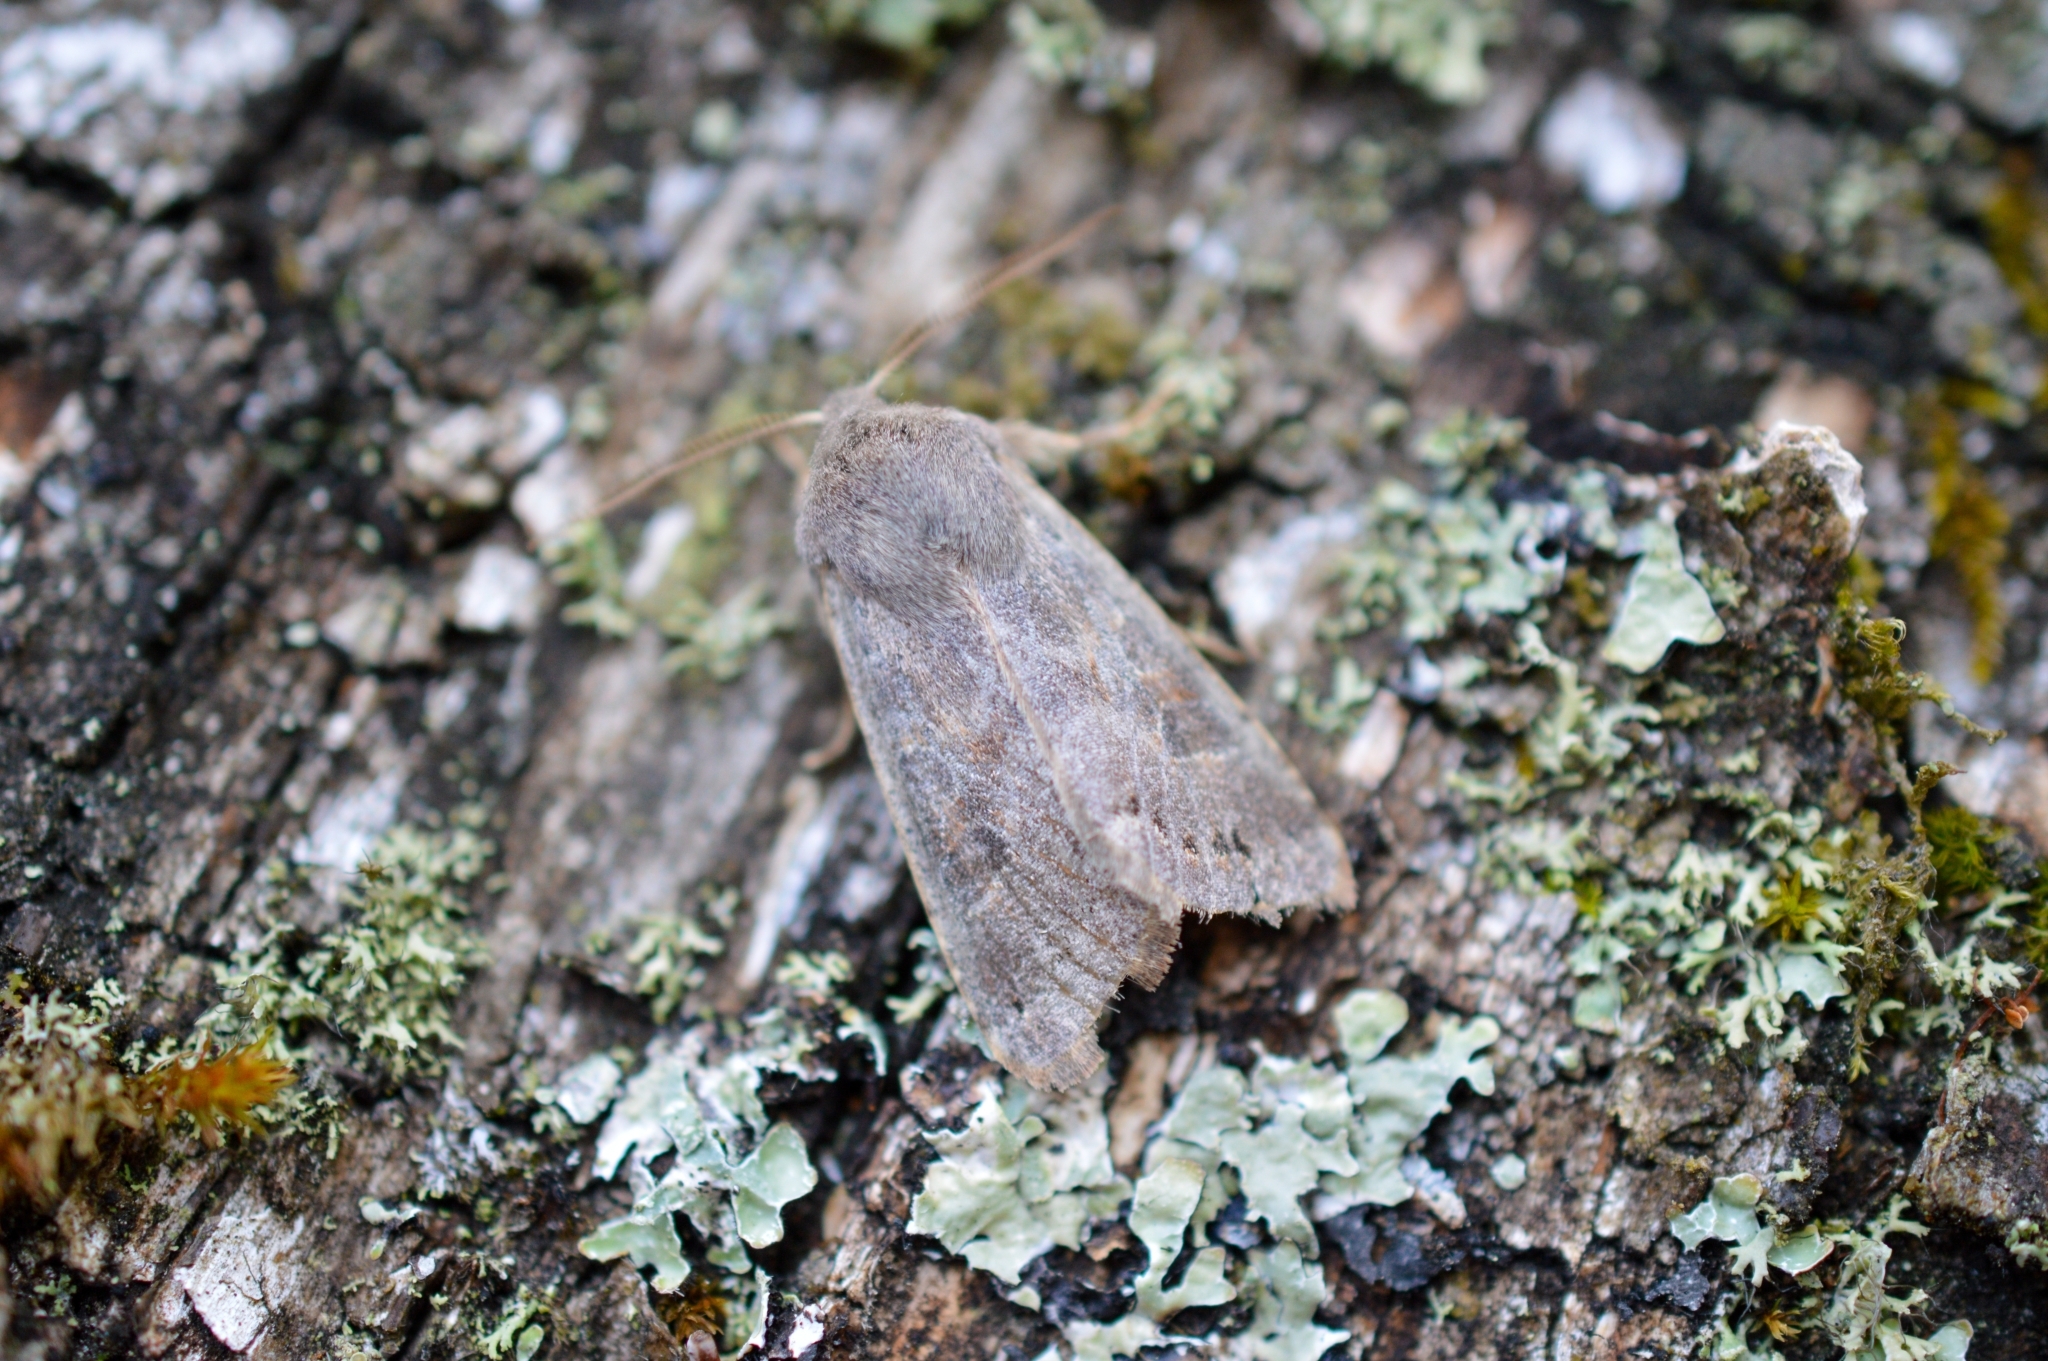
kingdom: Animalia
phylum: Arthropoda
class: Insecta
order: Lepidoptera
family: Noctuidae
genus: Orthosia
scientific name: Orthosia populeti
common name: Lead-coloured drab
